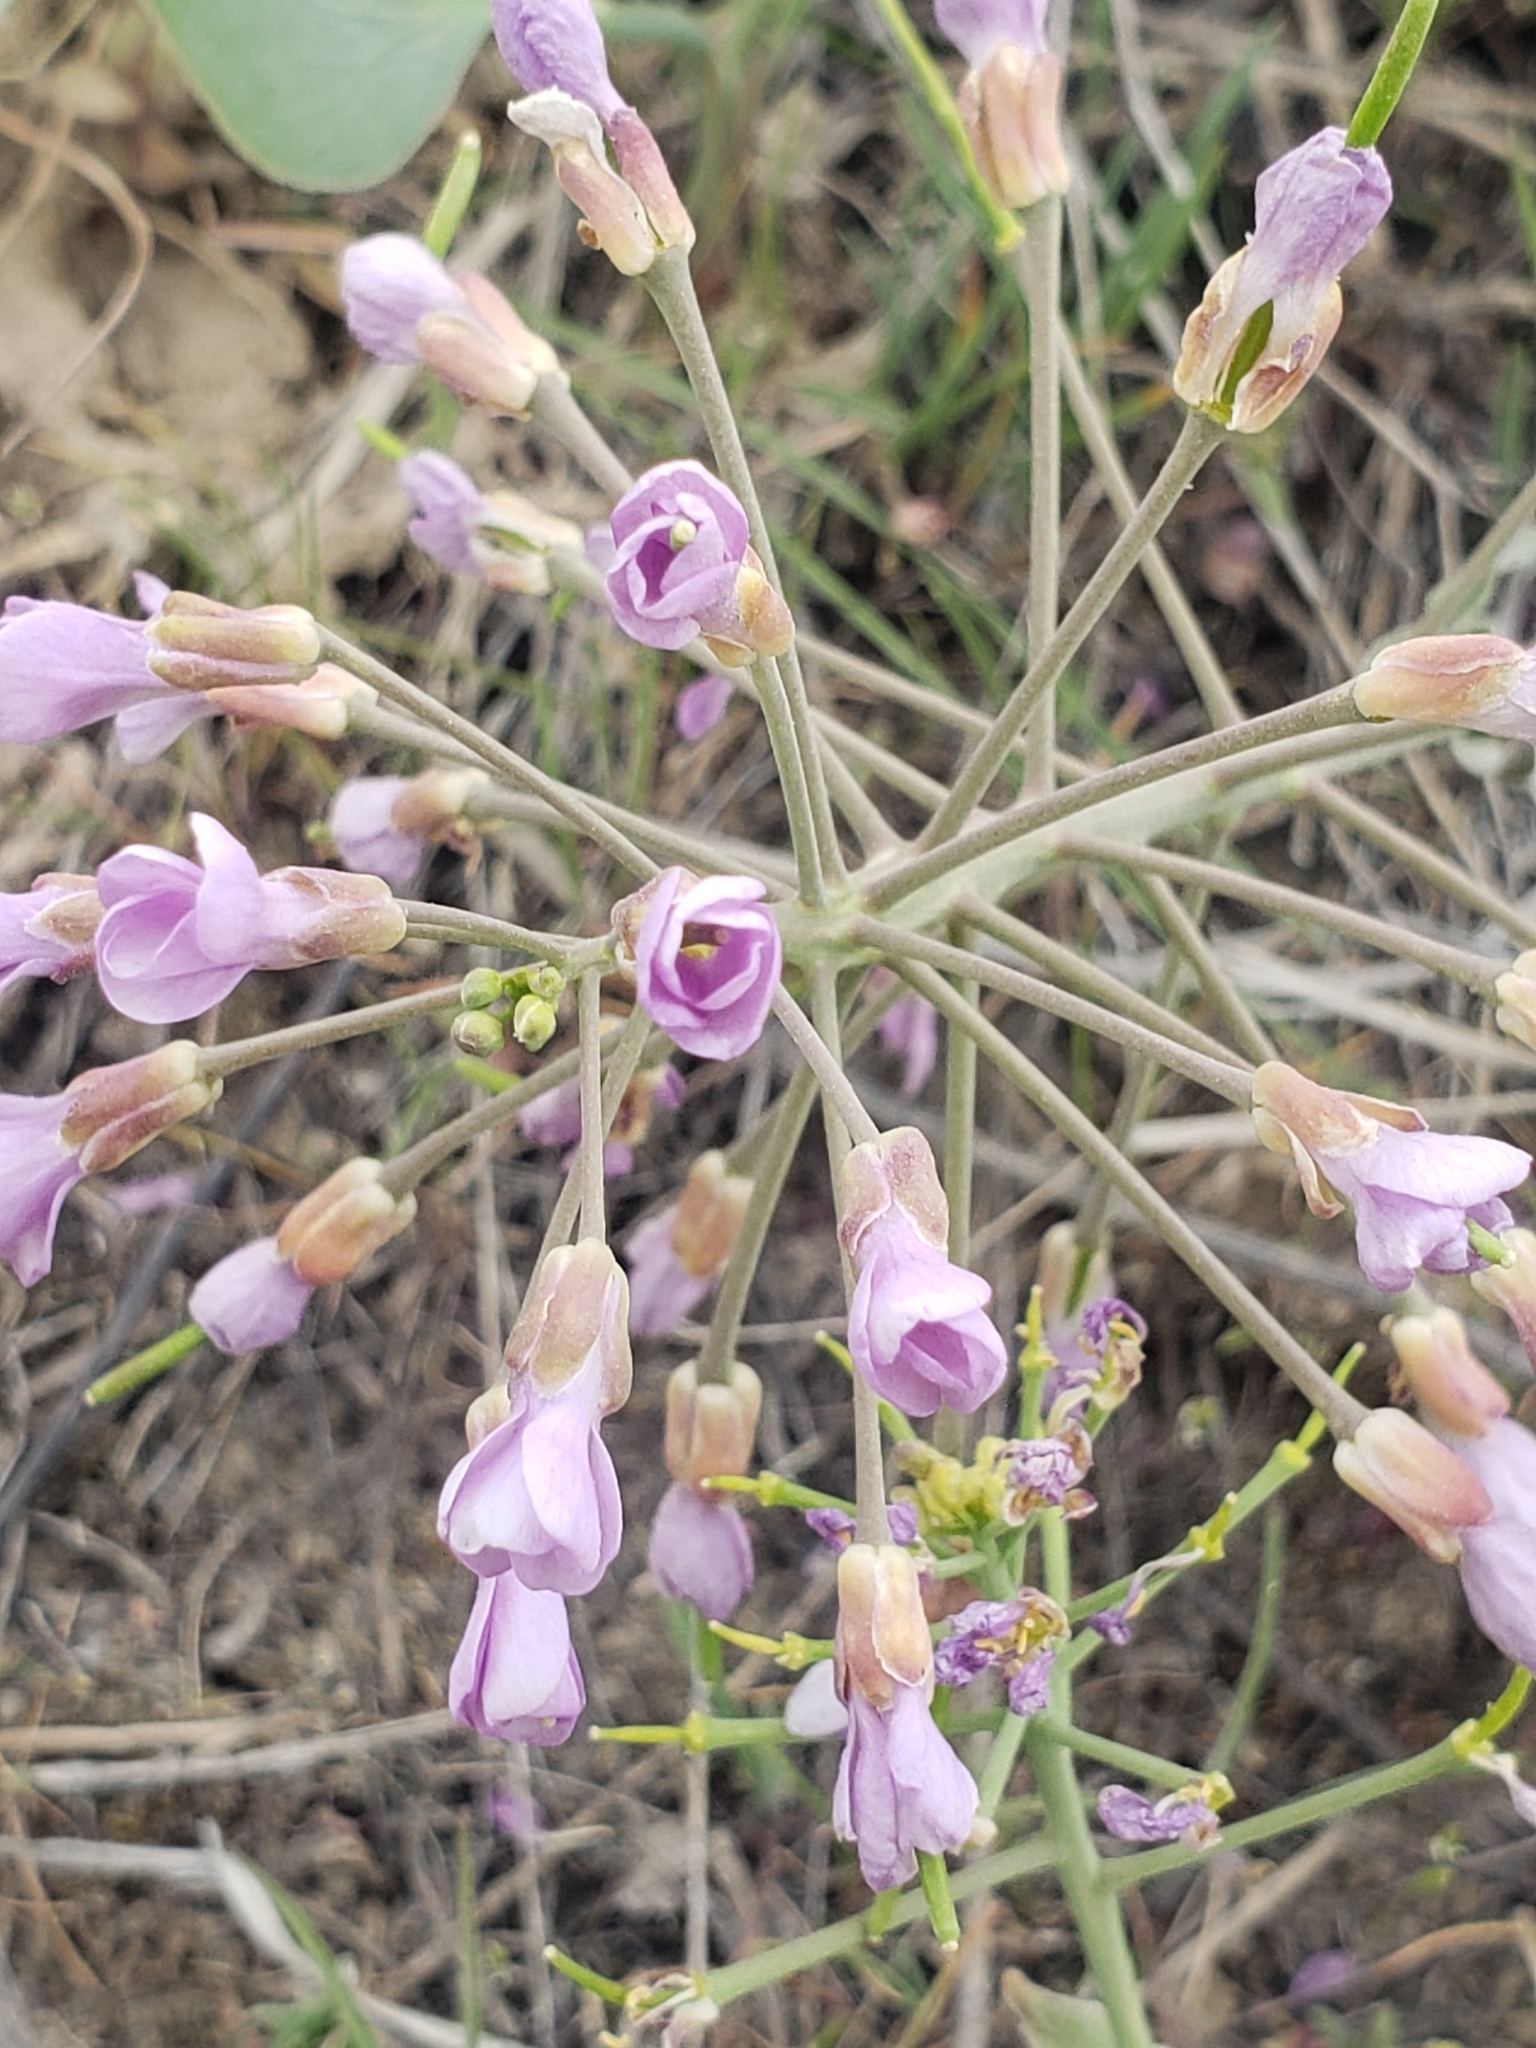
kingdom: Plantae
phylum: Tracheophyta
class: Magnoliopsida
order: Brassicales
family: Brassicaceae
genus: Phoenicaulis
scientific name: Phoenicaulis cheiranthoides
